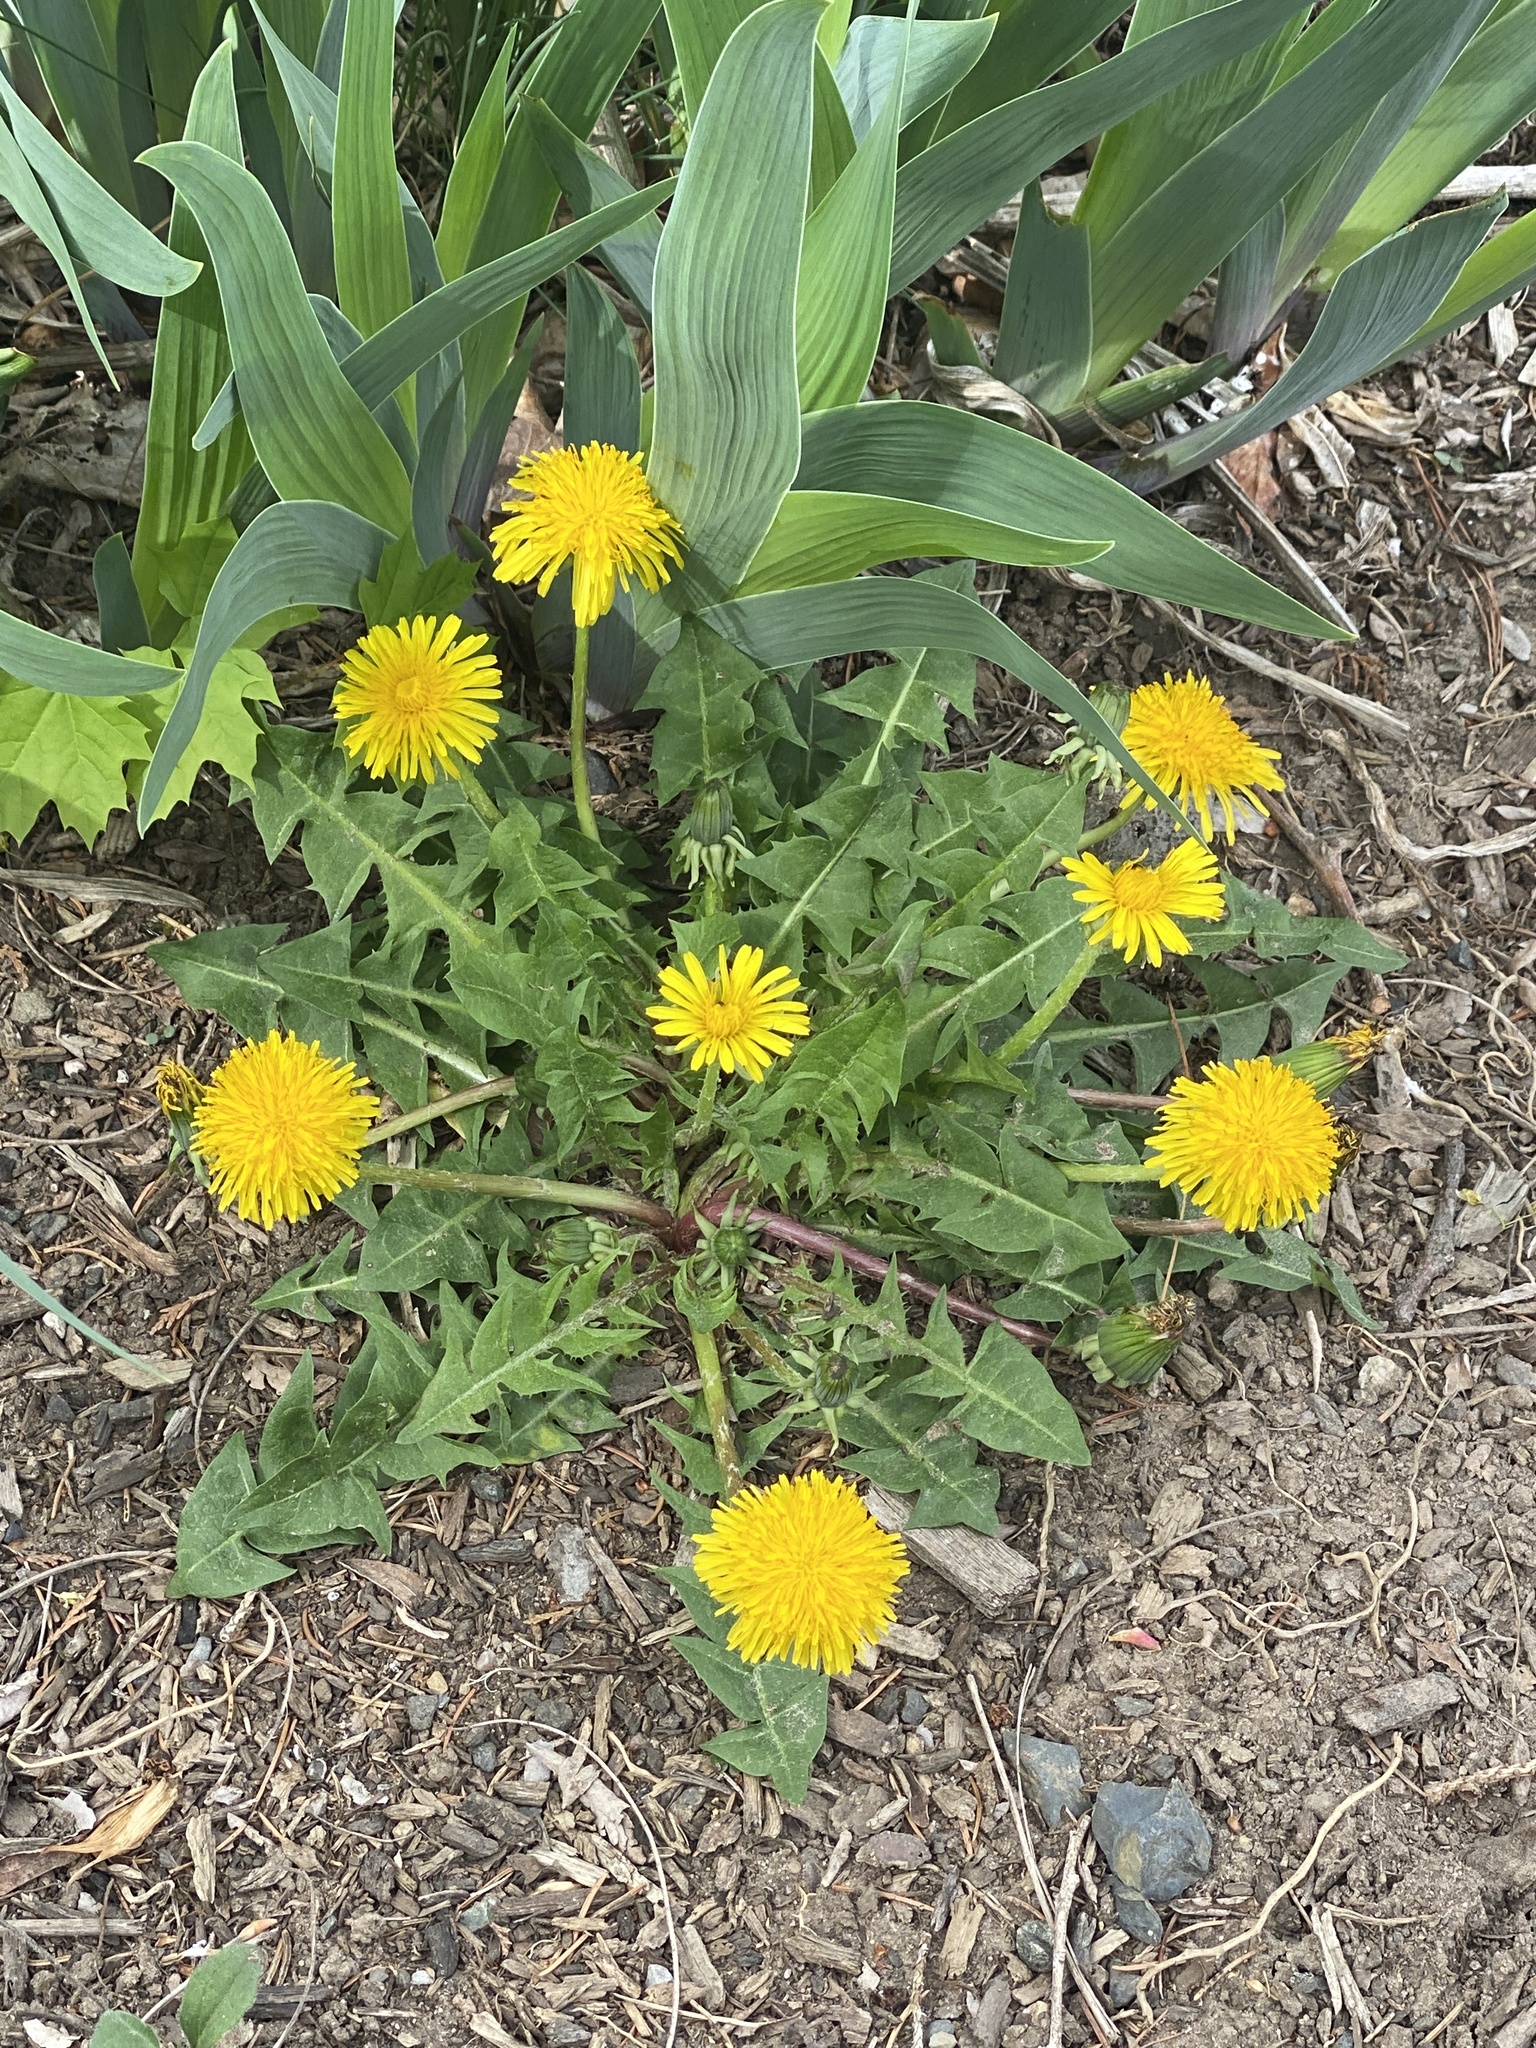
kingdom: Plantae
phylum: Tracheophyta
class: Magnoliopsida
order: Asterales
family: Asteraceae
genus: Taraxacum
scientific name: Taraxacum
